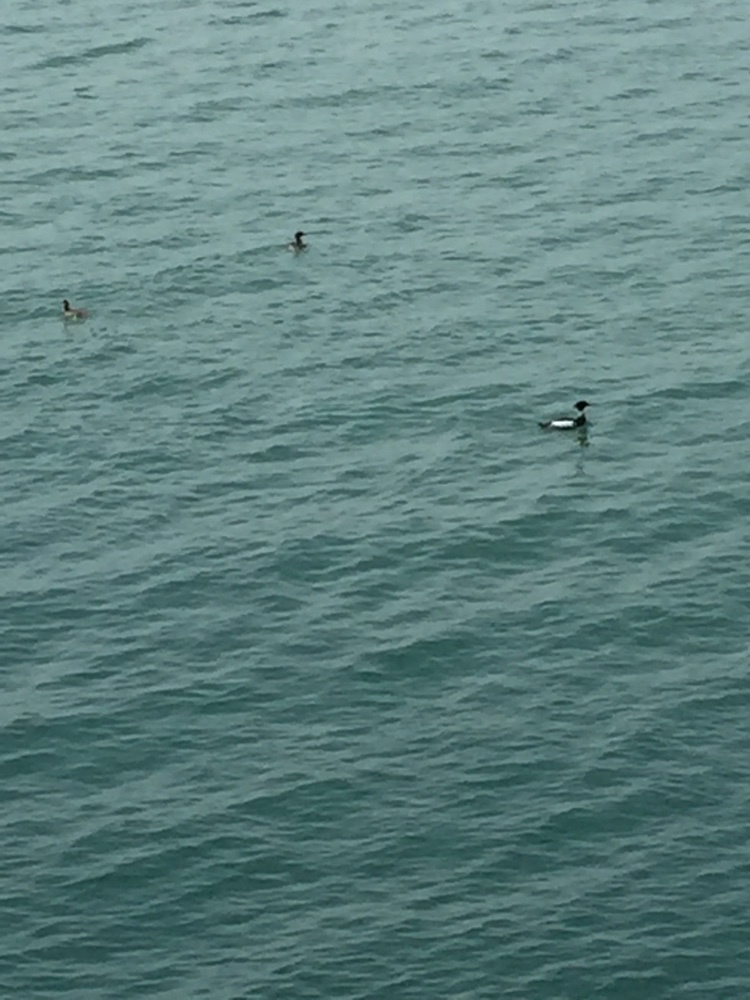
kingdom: Animalia
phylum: Chordata
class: Aves
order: Anseriformes
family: Anatidae
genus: Mergus
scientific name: Mergus serrator
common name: Red-breasted merganser
